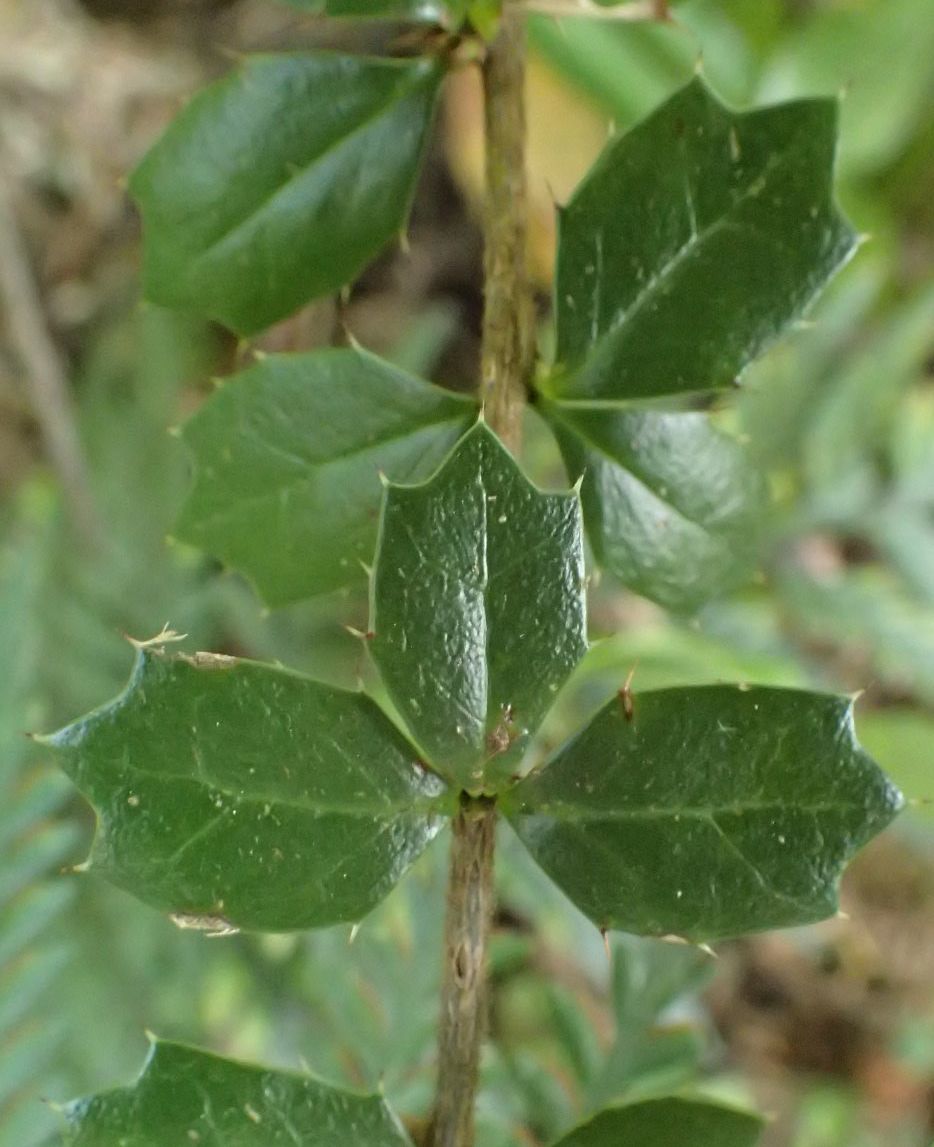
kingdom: Plantae
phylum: Tracheophyta
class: Magnoliopsida
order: Ranunculales
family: Berberidaceae
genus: Berberis
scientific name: Berberis darwinii
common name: Darwin's barberry
